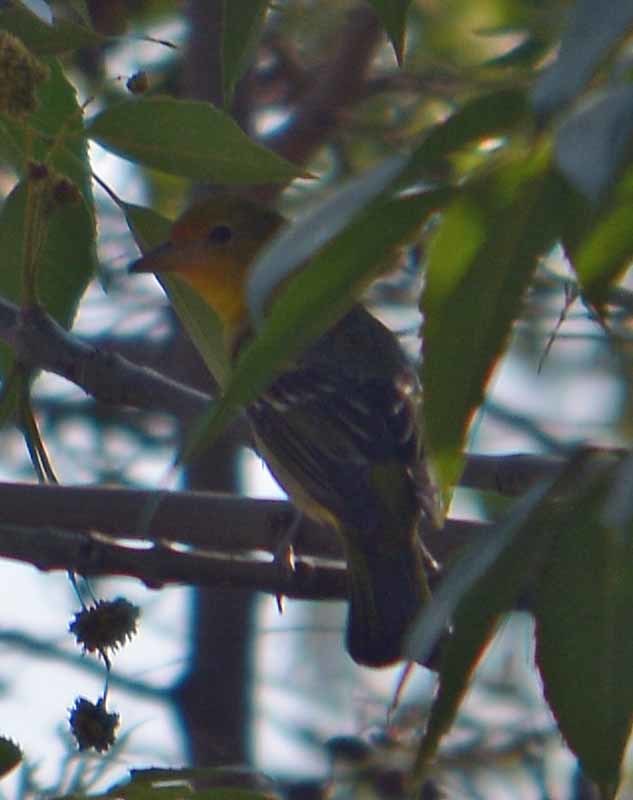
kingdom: Animalia
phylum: Chordata
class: Aves
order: Passeriformes
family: Cardinalidae
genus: Piranga
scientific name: Piranga ludoviciana
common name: Western tanager
